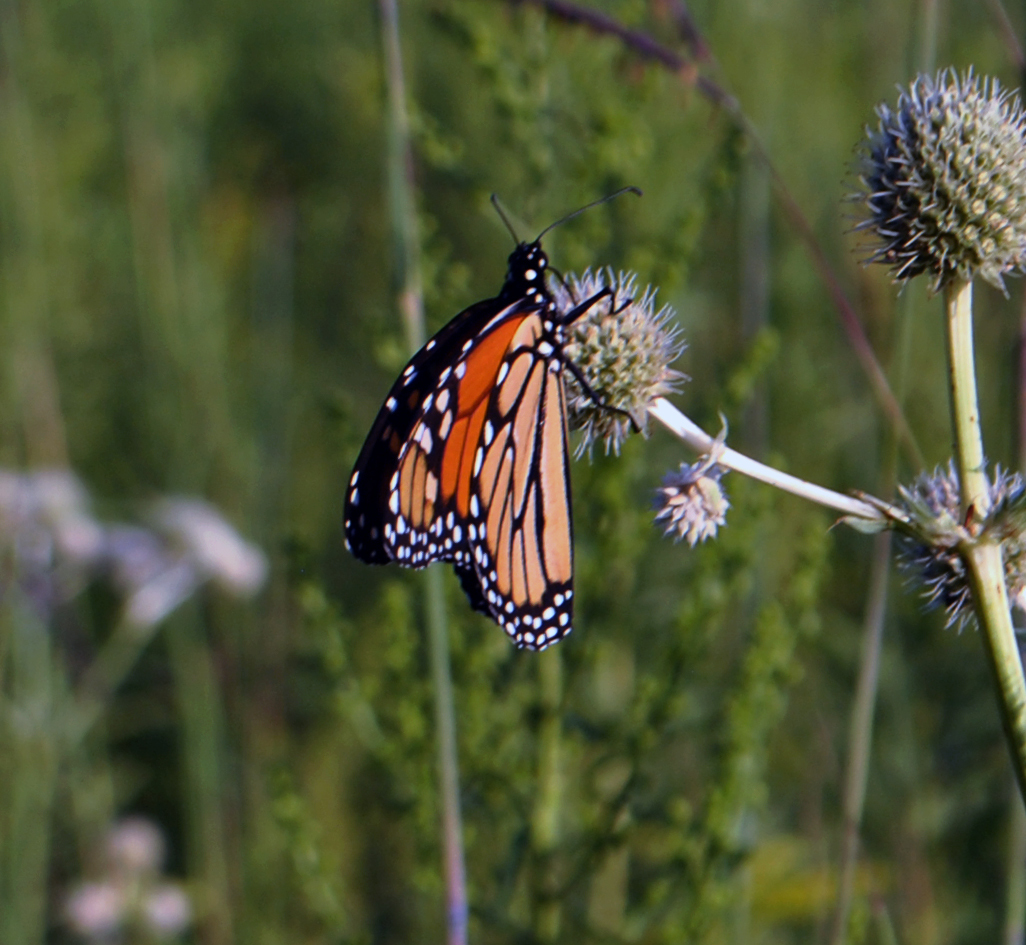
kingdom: Animalia
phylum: Arthropoda
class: Insecta
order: Lepidoptera
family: Nymphalidae
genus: Danaus
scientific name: Danaus plexippus
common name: Monarch
